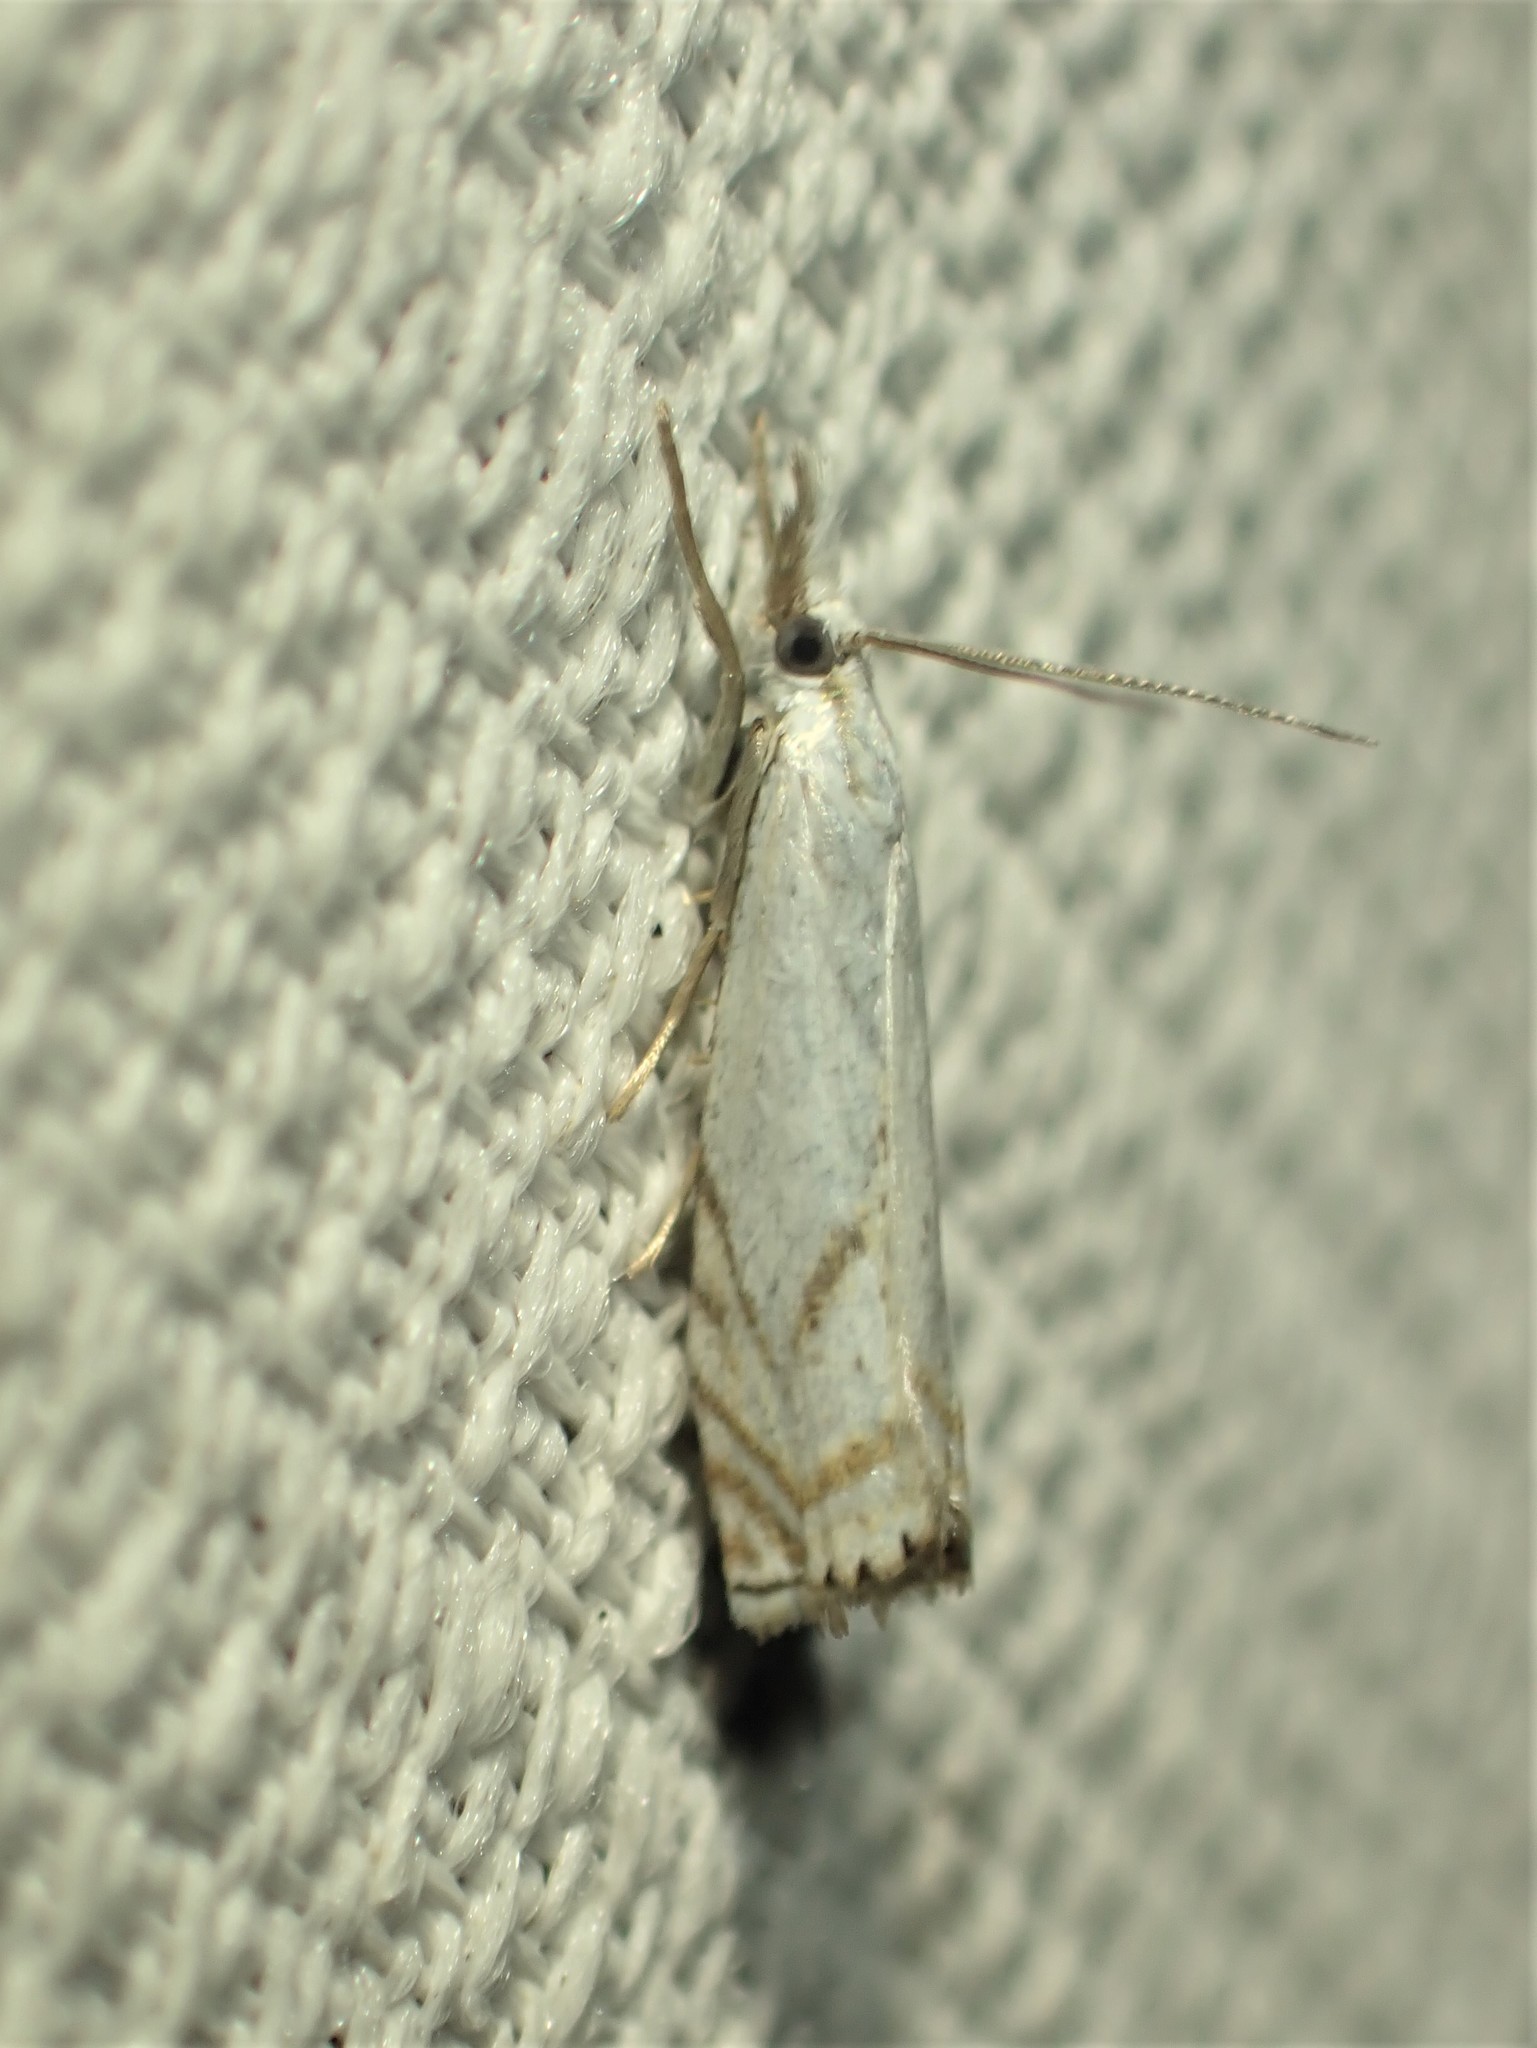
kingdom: Animalia
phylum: Arthropoda
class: Insecta
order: Lepidoptera
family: Crambidae
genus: Crambus
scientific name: Crambus albellus
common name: Small white grass-veneer
